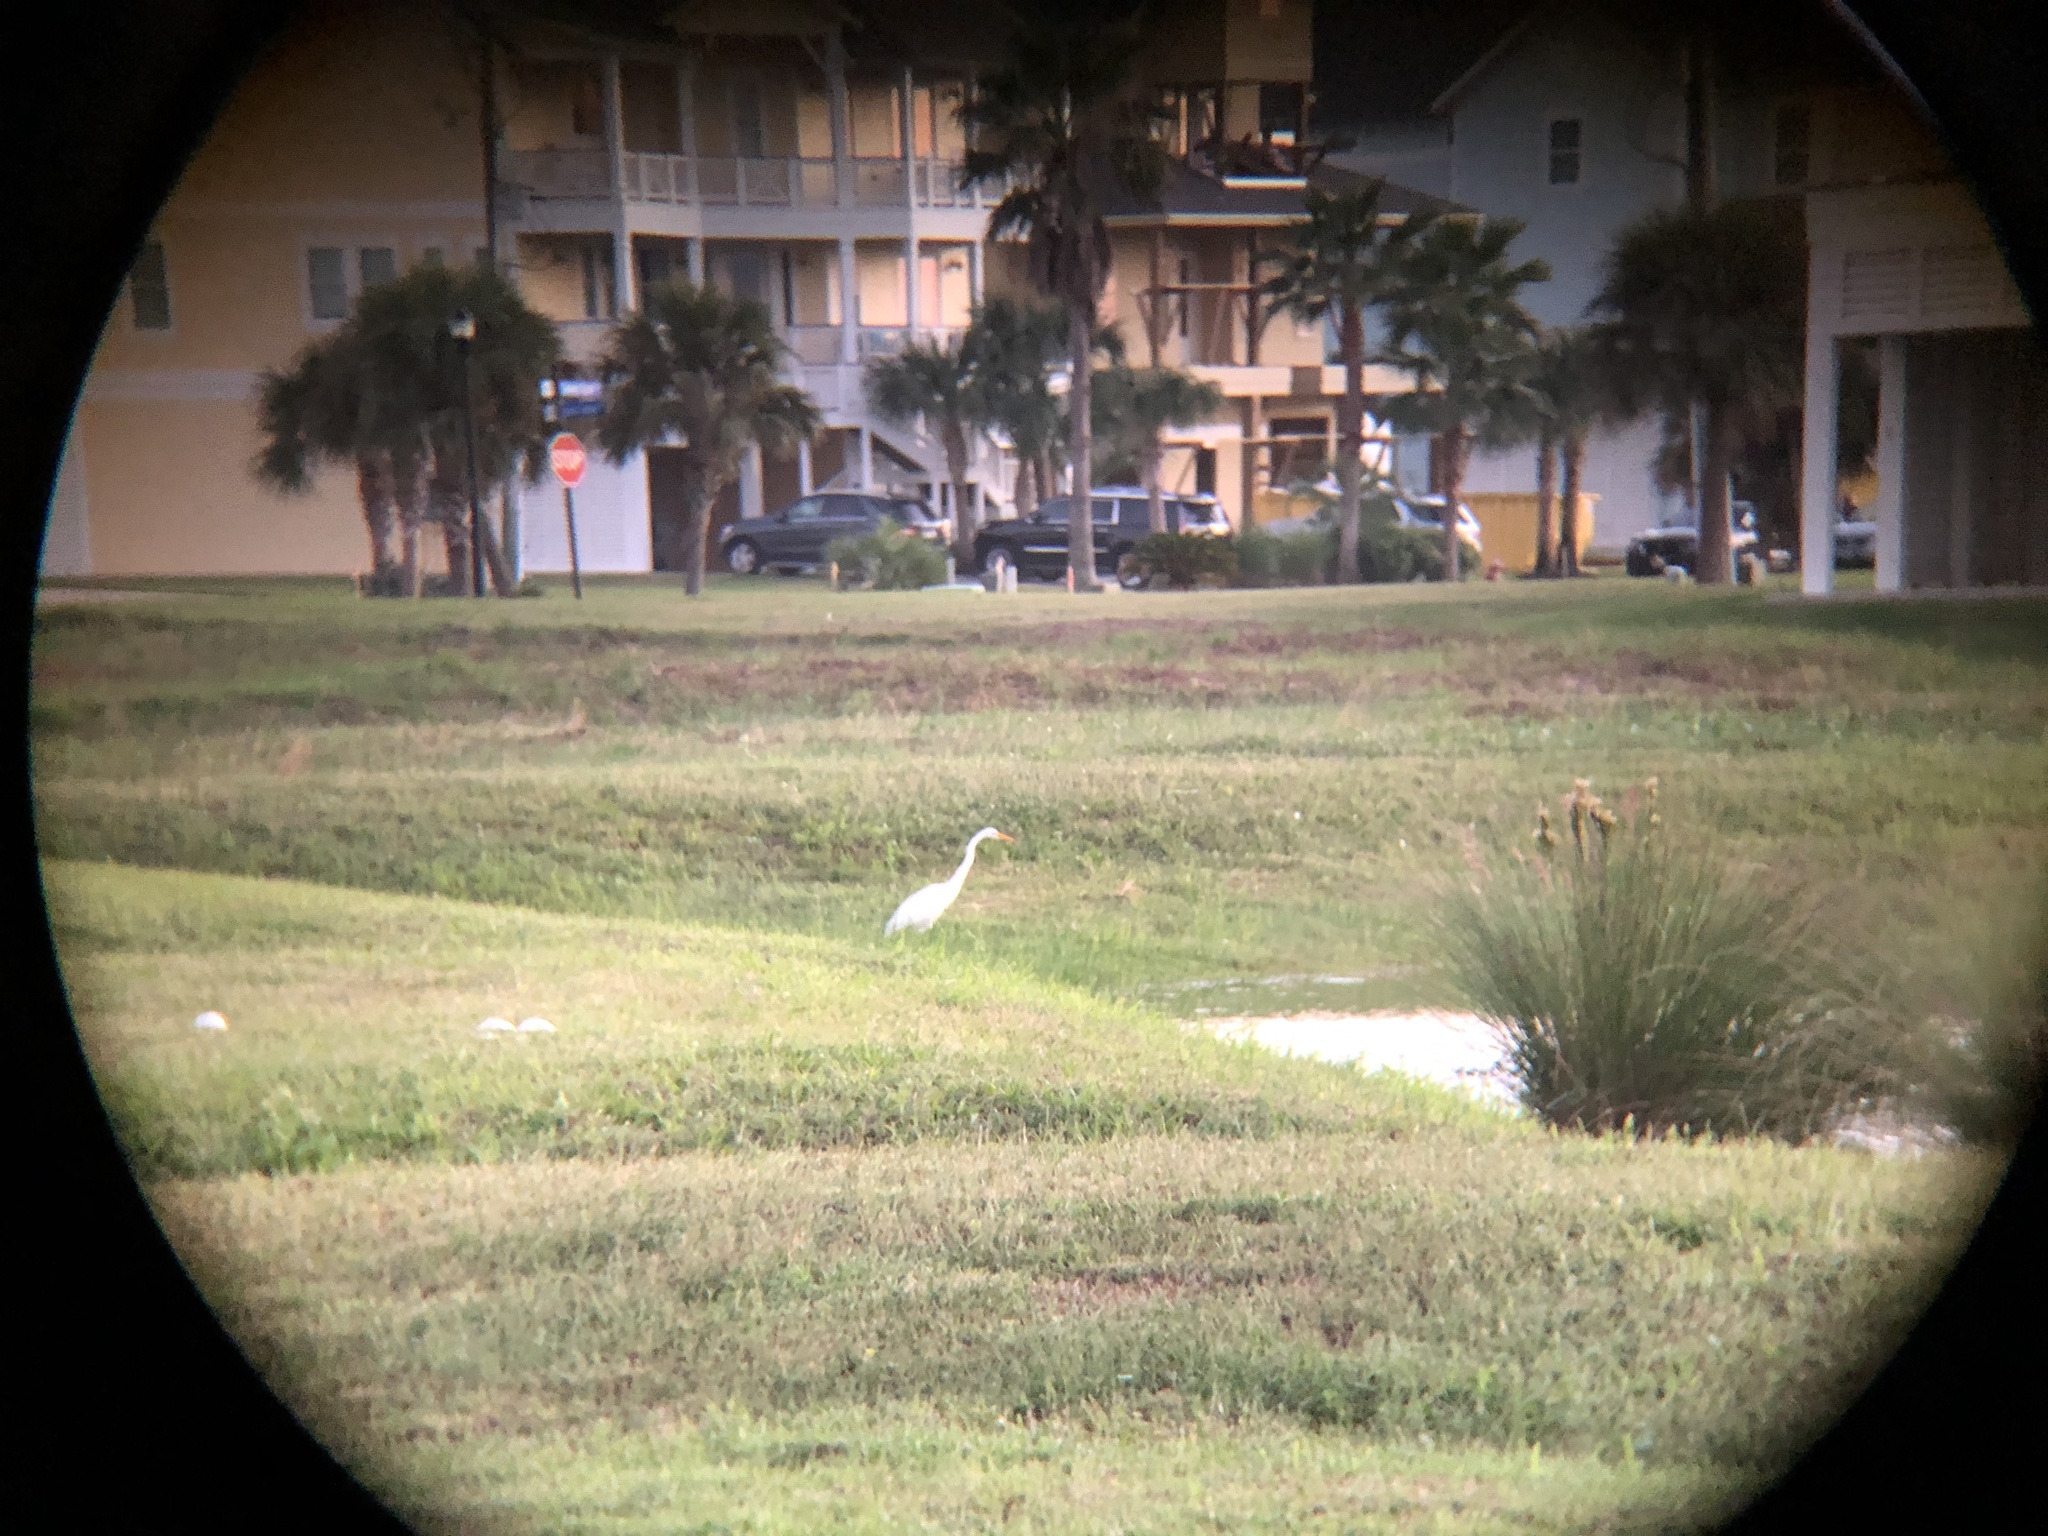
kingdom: Animalia
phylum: Chordata
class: Aves
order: Pelecaniformes
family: Ardeidae
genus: Ardea
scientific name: Ardea alba
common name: Great egret
